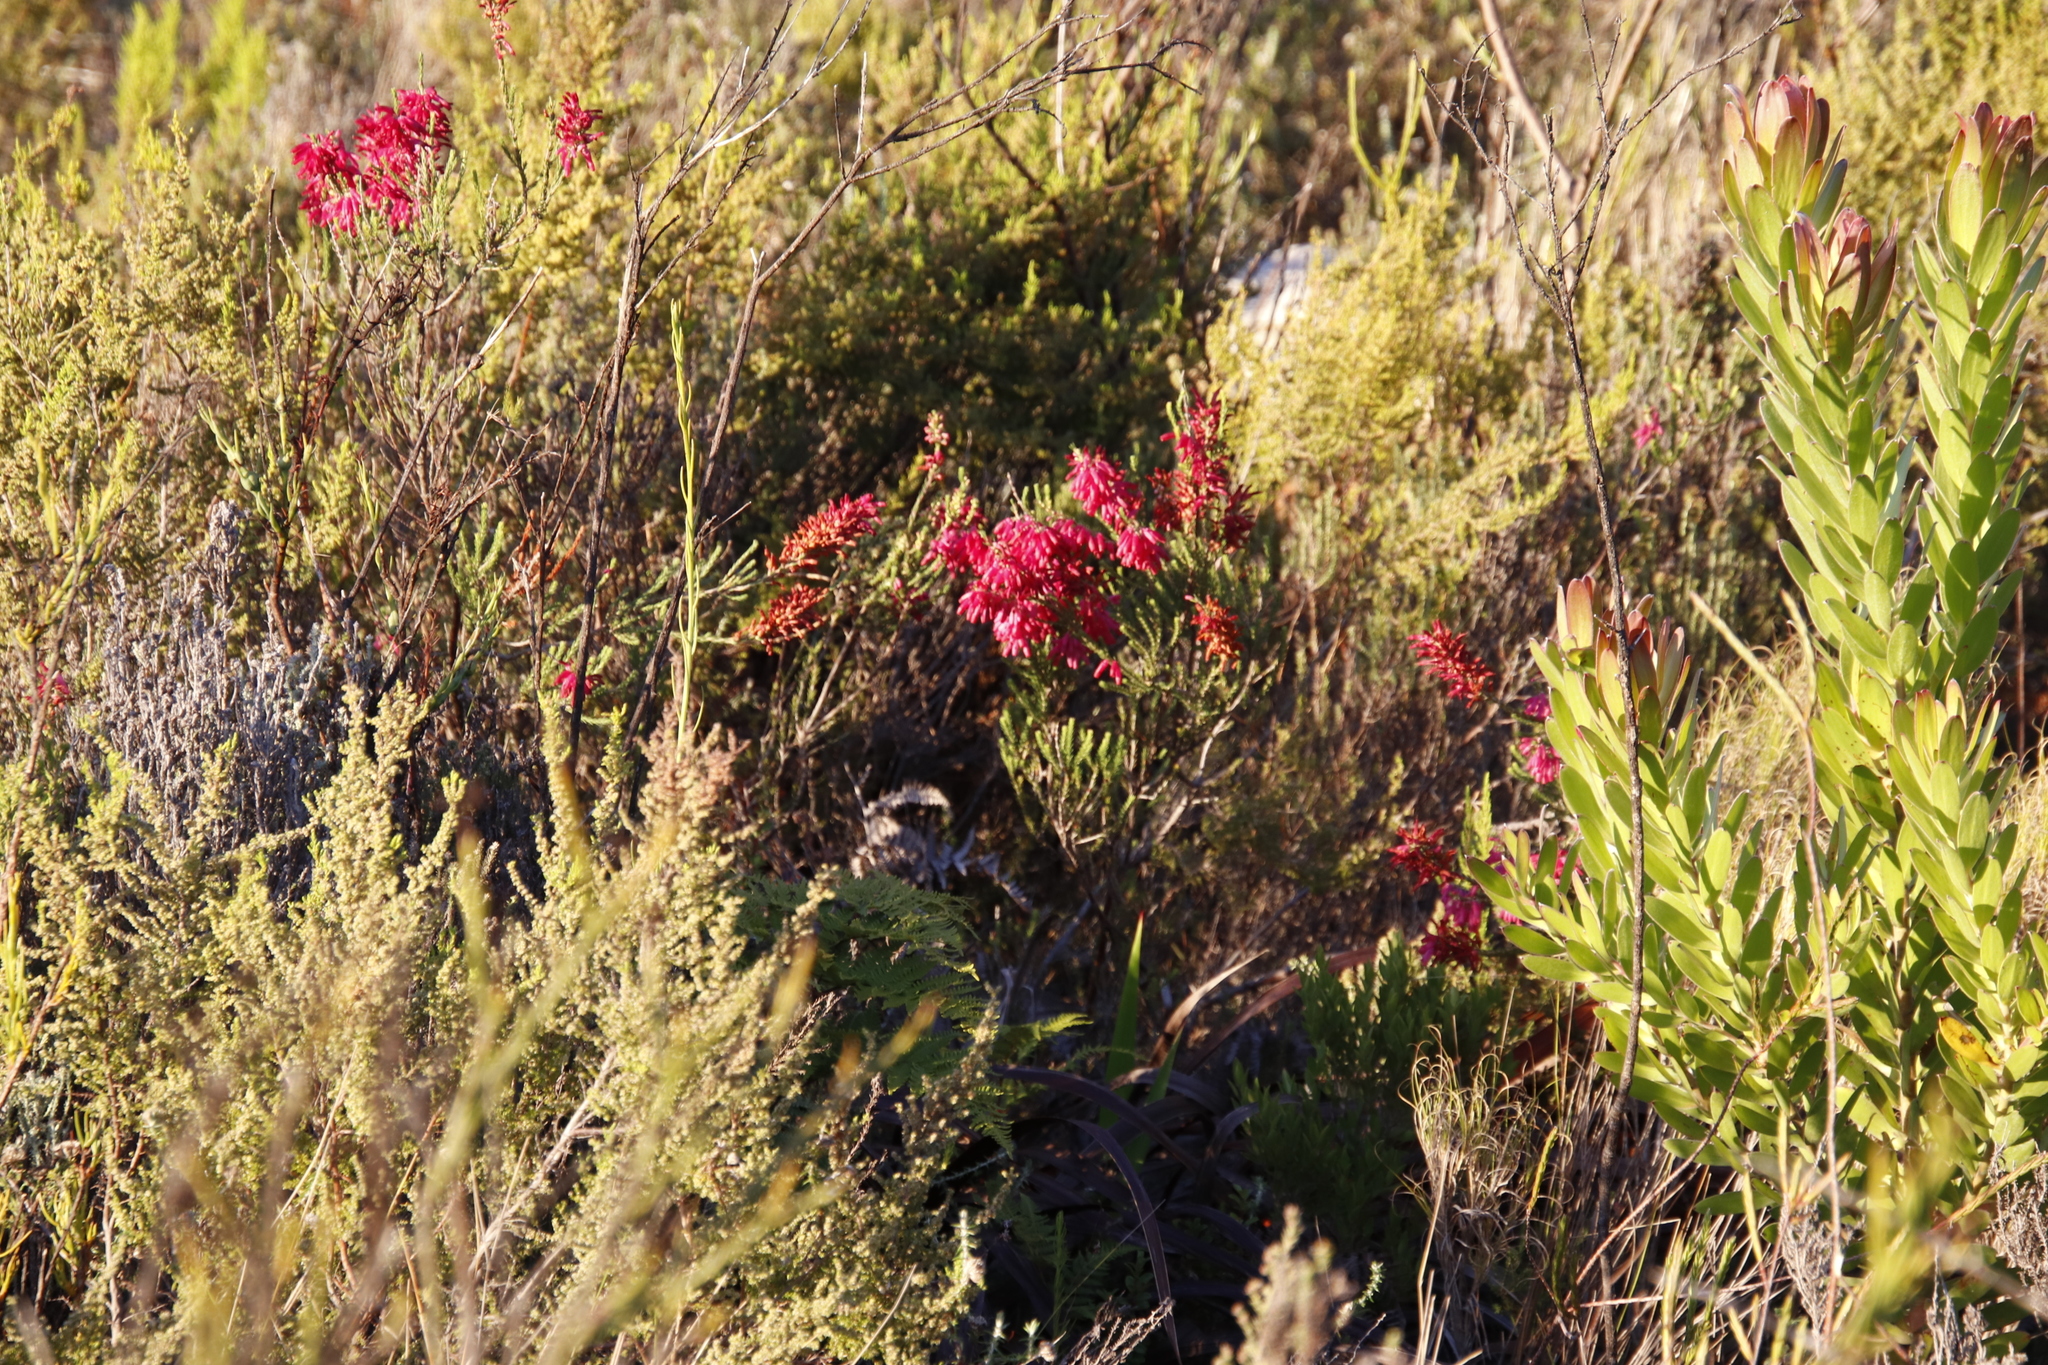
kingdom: Plantae
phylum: Tracheophyta
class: Magnoliopsida
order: Ericales
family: Ericaceae
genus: Erica
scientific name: Erica mammosa
